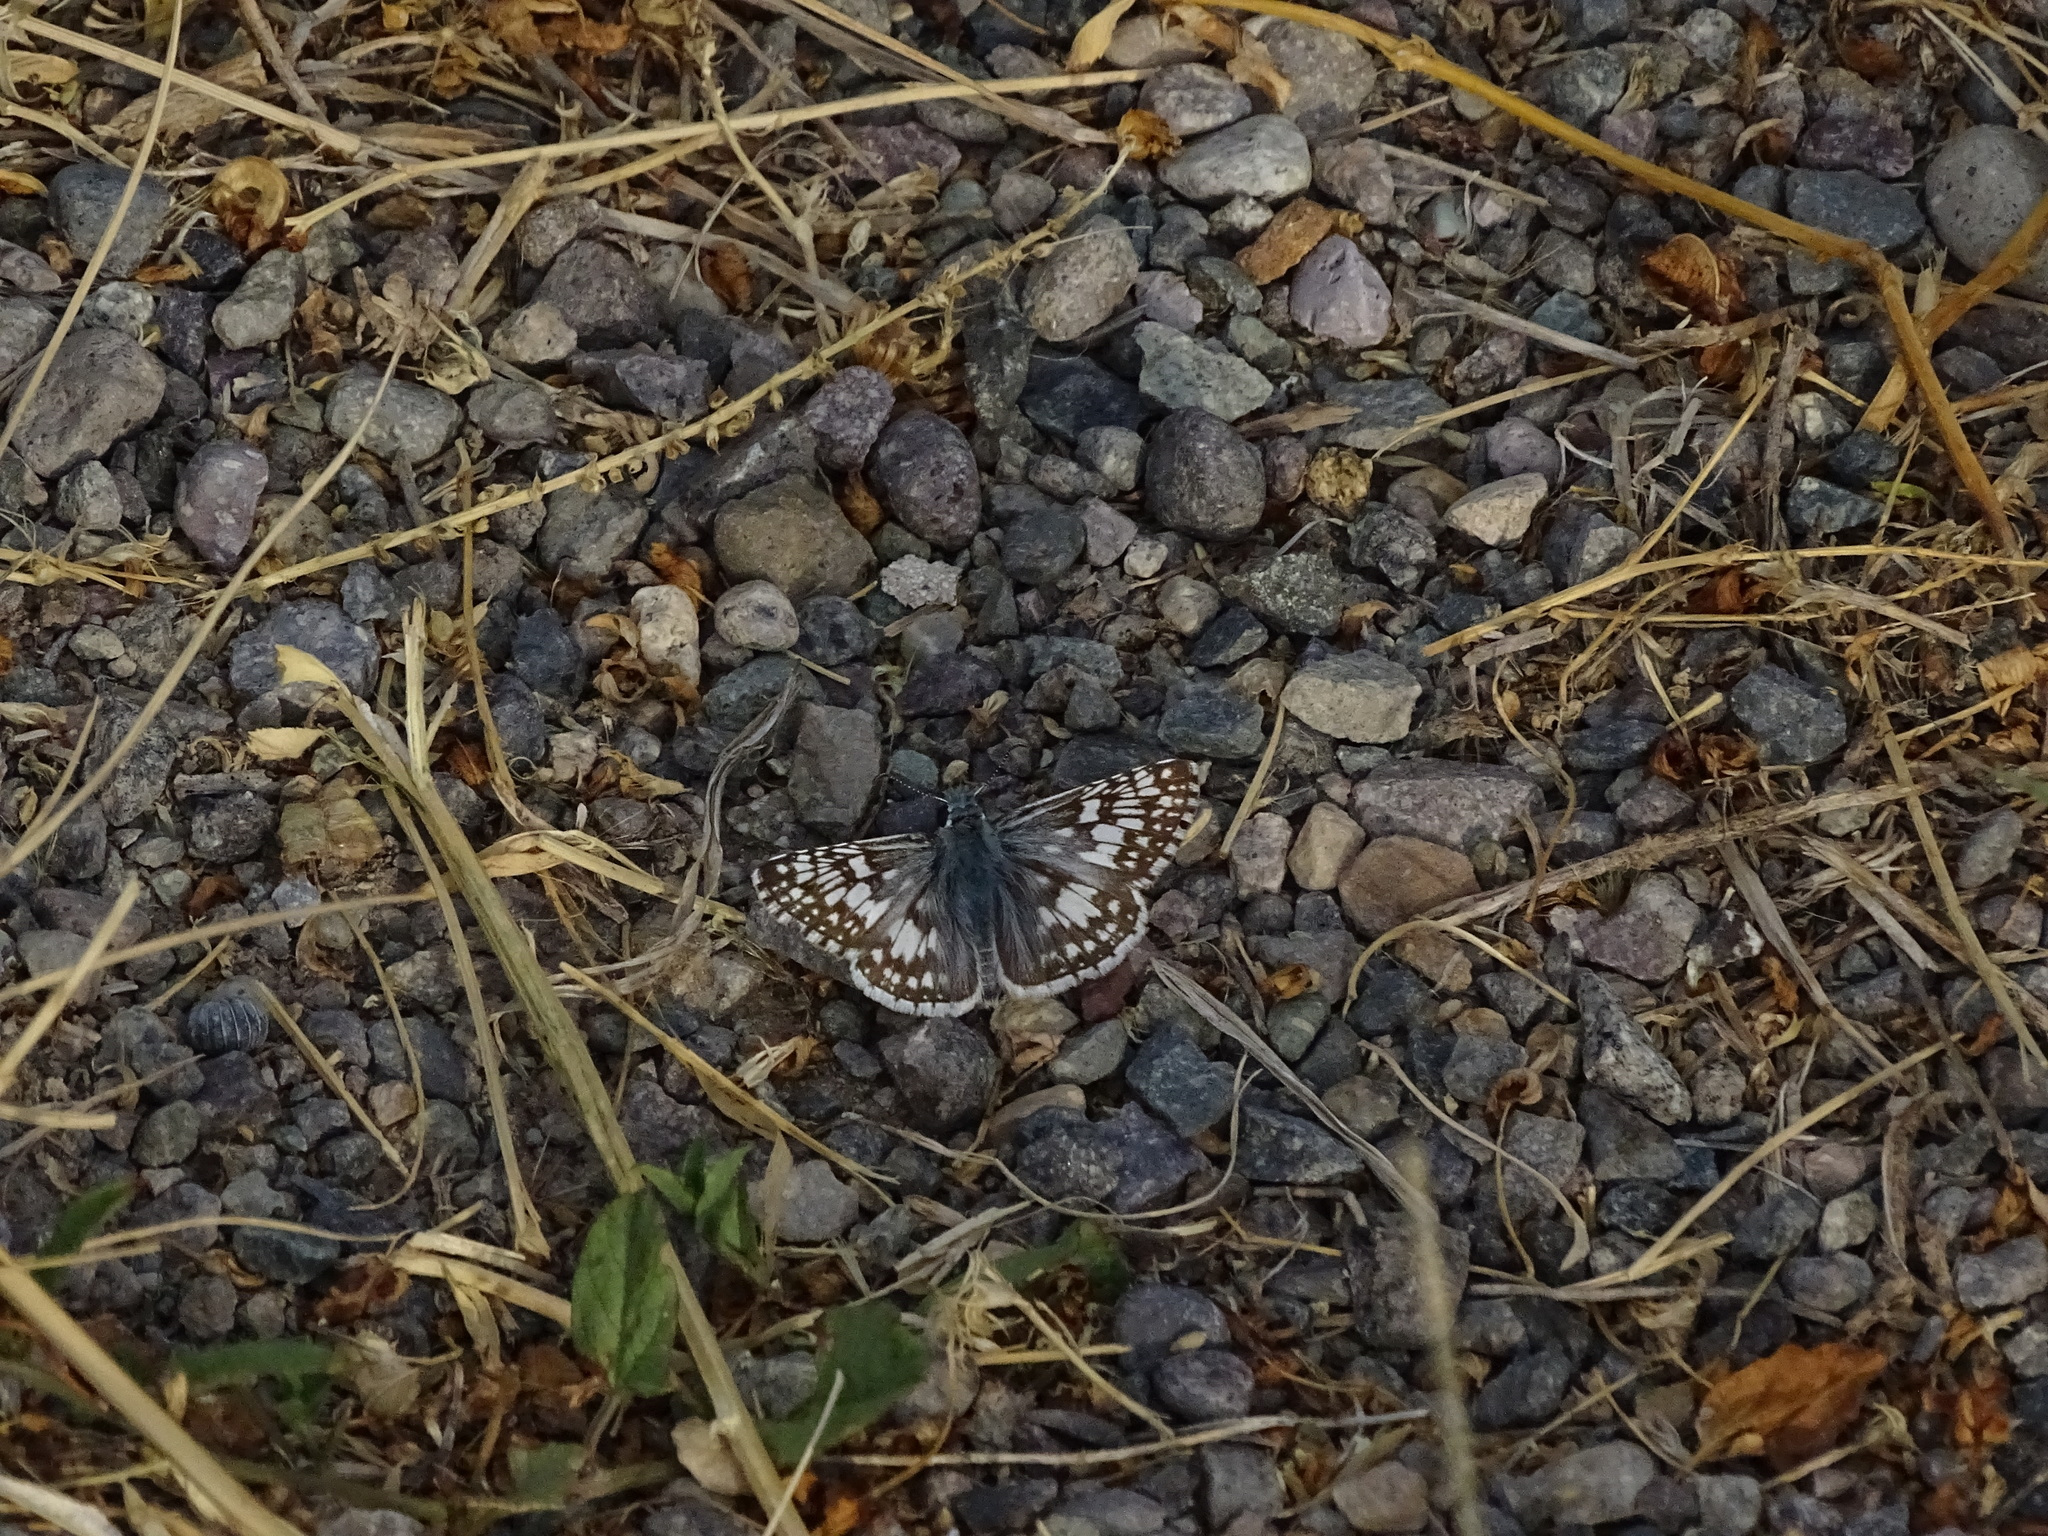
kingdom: Animalia
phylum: Arthropoda
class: Insecta
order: Lepidoptera
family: Hesperiidae
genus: Burnsius
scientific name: Burnsius communis
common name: Common checkered-skipper
